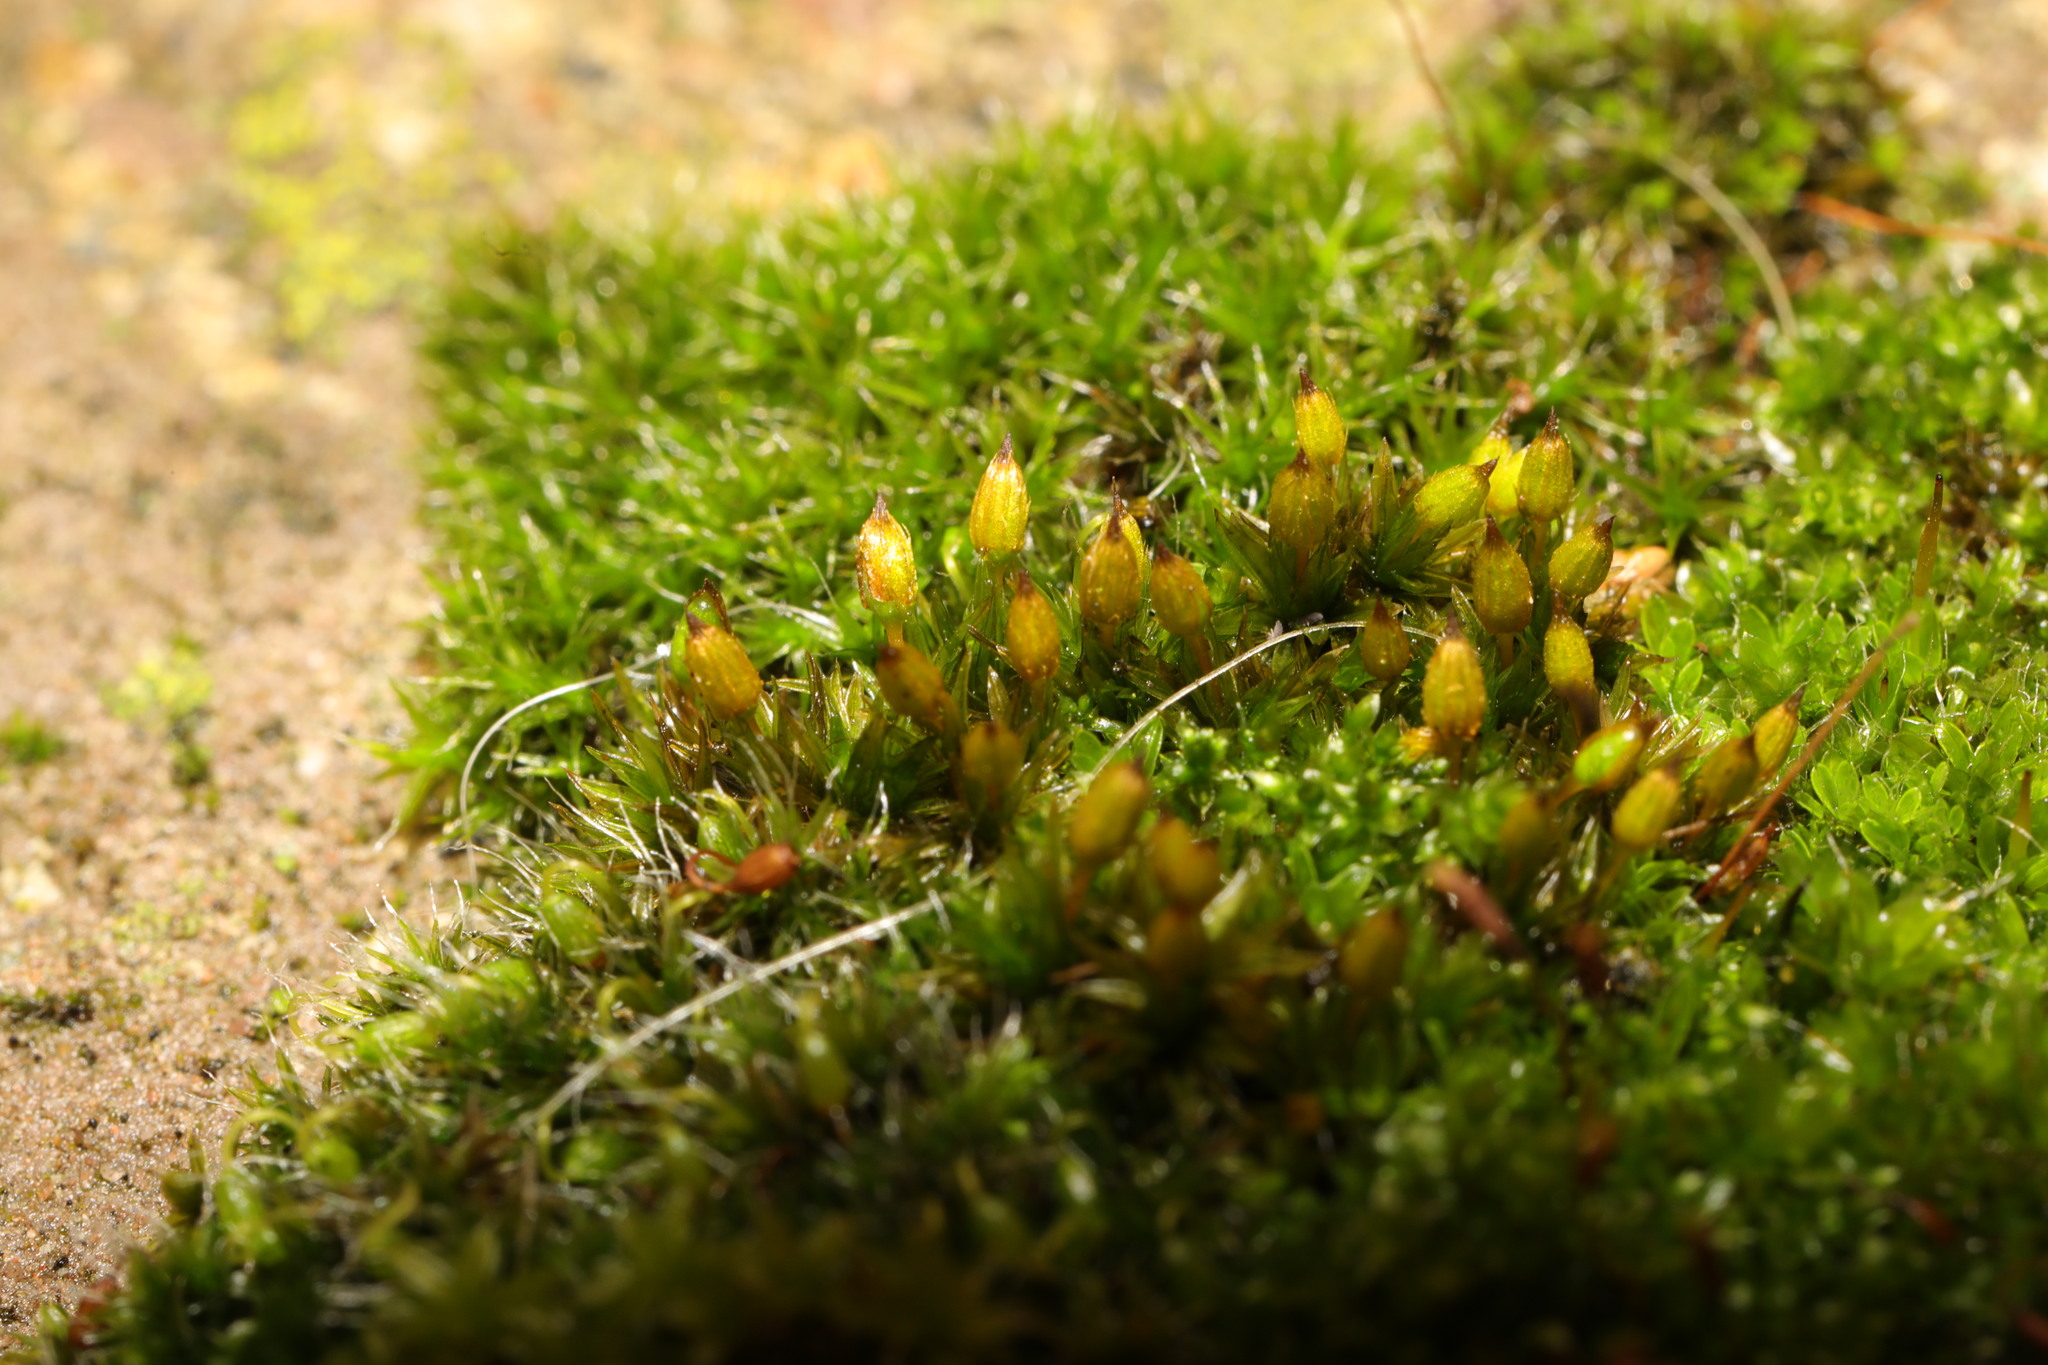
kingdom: Plantae
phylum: Bryophyta
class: Bryopsida
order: Orthotrichales
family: Orthotrichaceae
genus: Orthotrichum
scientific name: Orthotrichum anomalum
